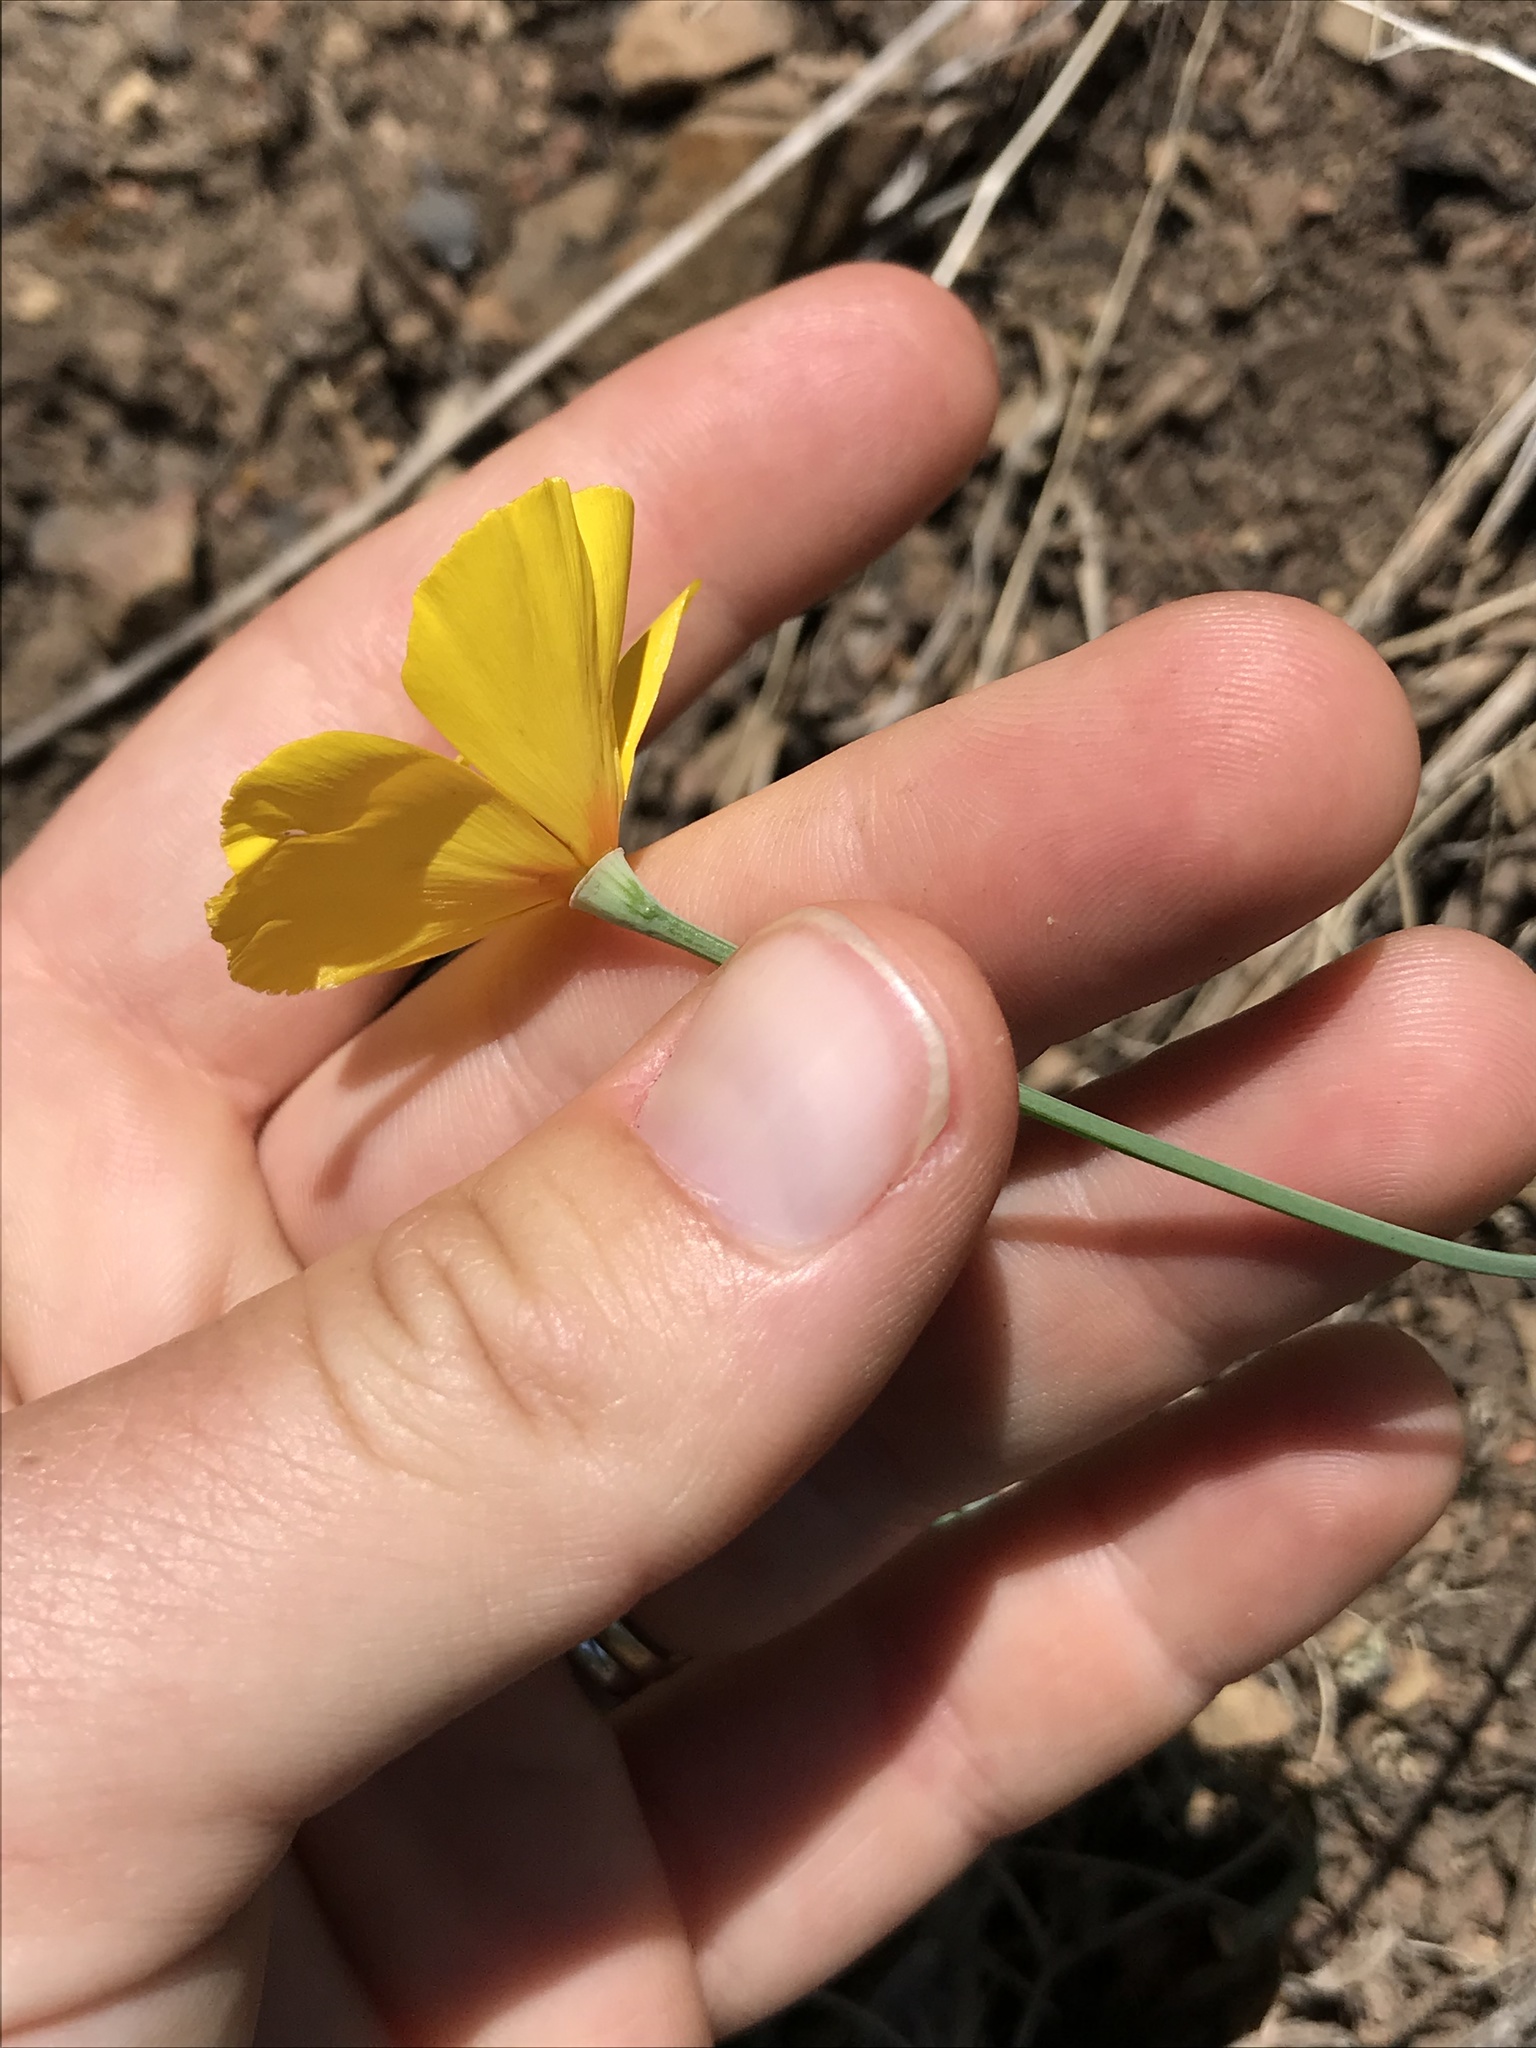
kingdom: Plantae
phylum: Tracheophyta
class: Magnoliopsida
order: Ranunculales
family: Papaveraceae
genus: Eschscholzia
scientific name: Eschscholzia caespitosa
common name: Tufted california-poppy
